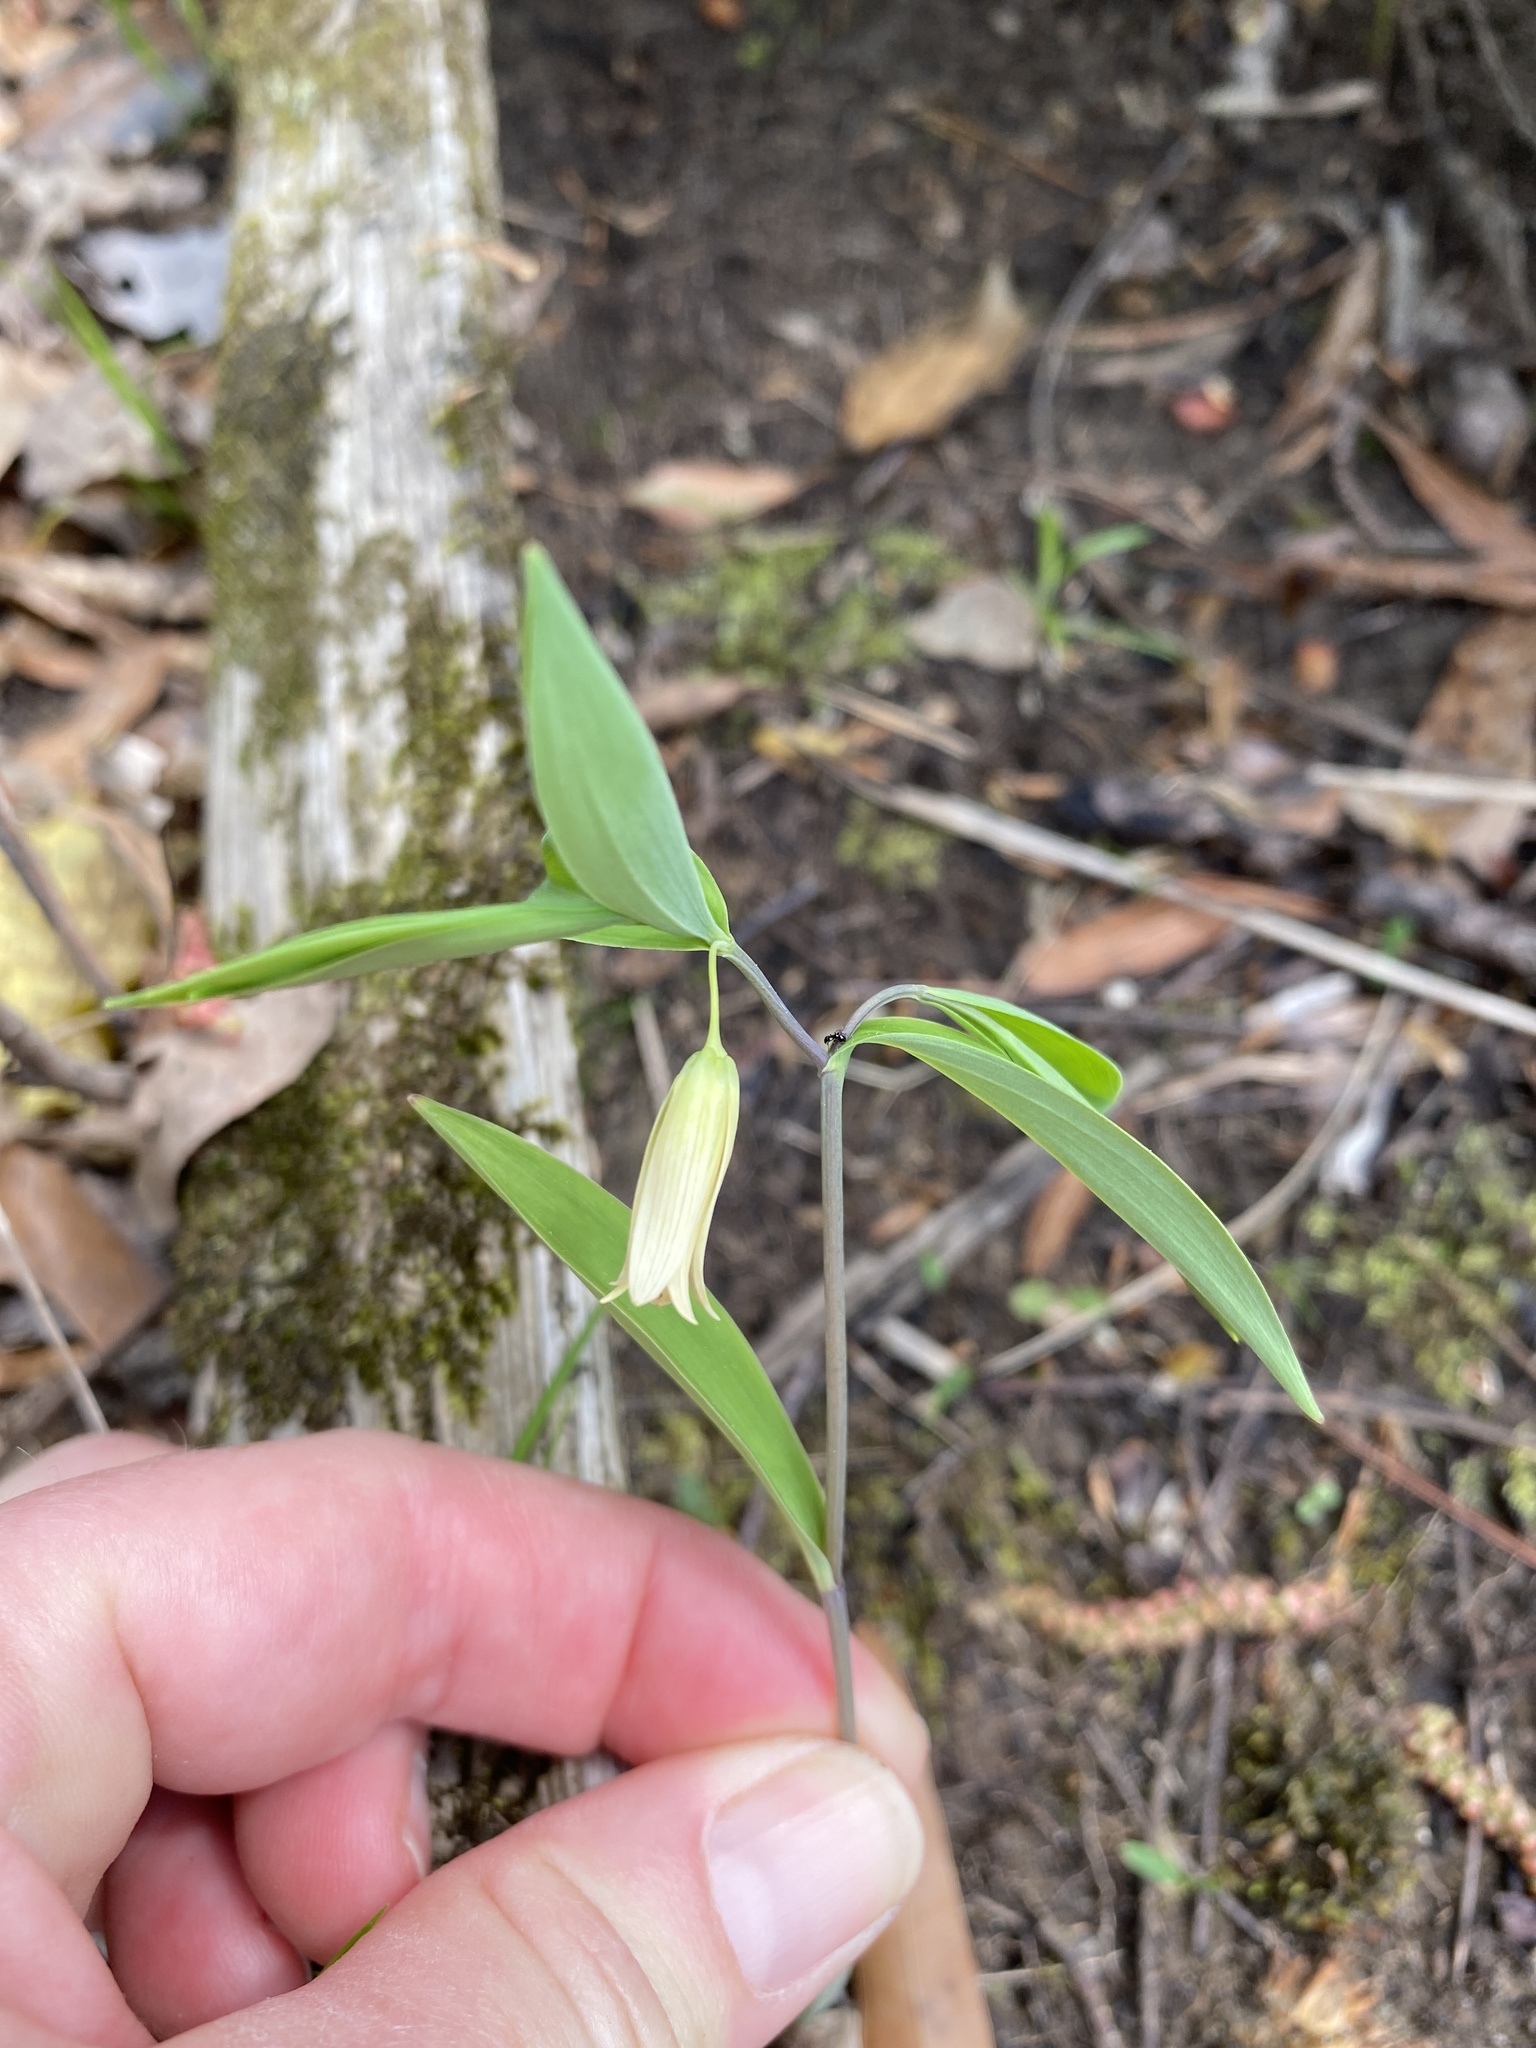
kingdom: Plantae
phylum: Tracheophyta
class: Liliopsida
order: Liliales
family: Colchicaceae
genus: Uvularia
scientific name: Uvularia sessilifolia
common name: Straw-lily
